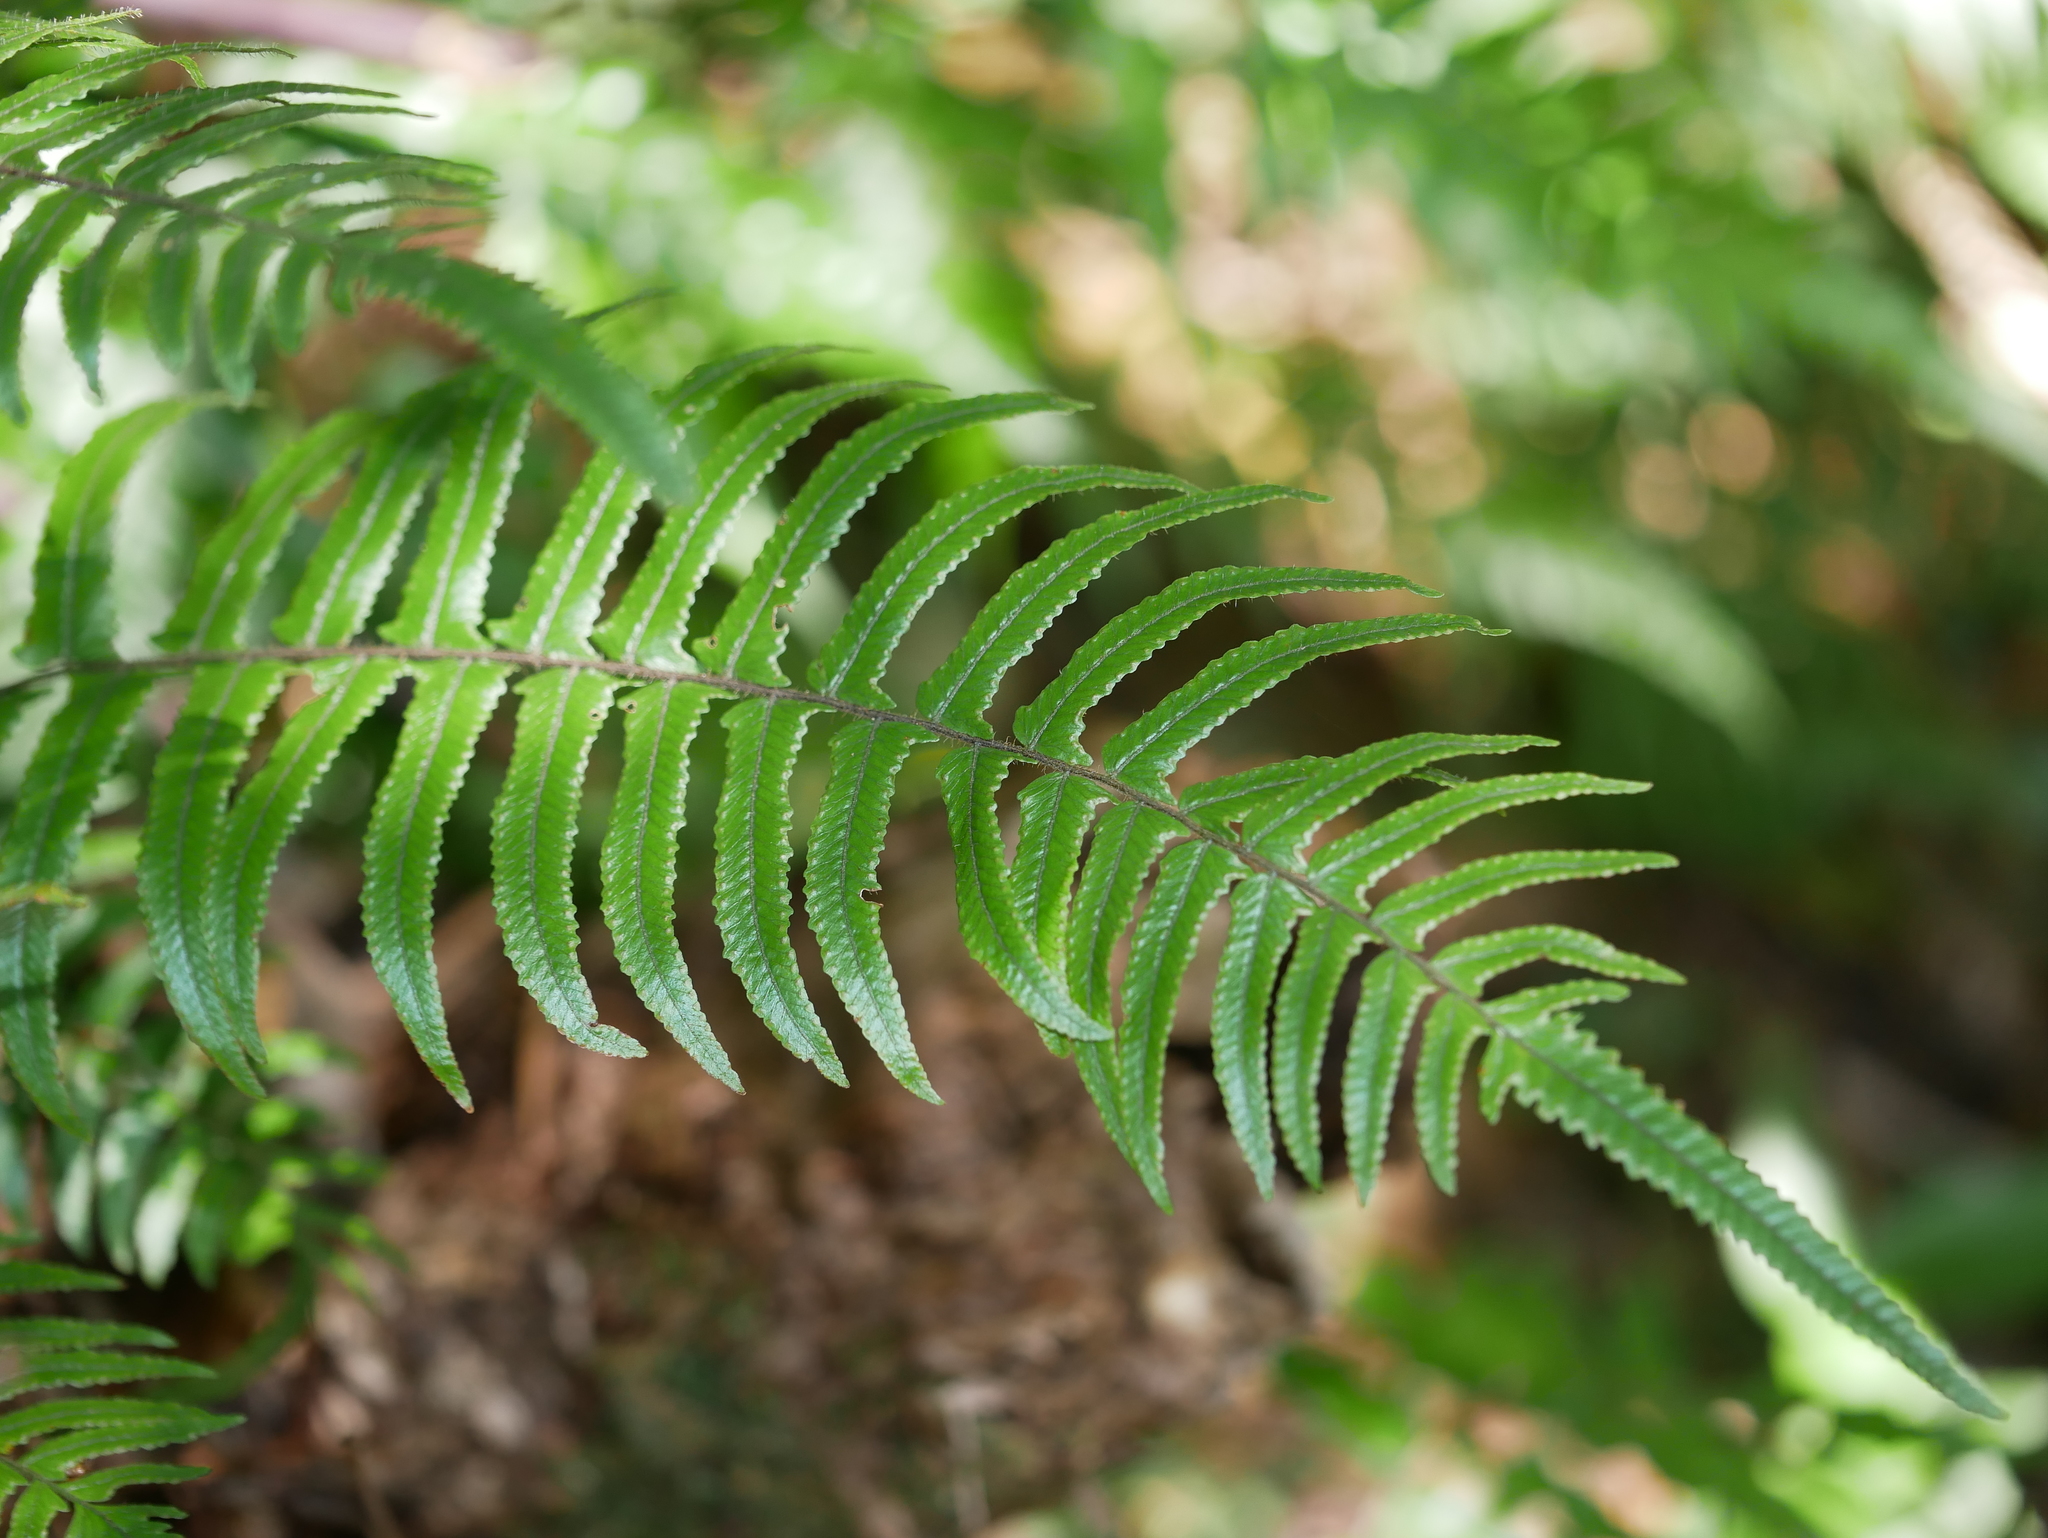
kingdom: Plantae
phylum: Tracheophyta
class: Polypodiopsida
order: Polypodiales
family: Dennstaedtiaceae
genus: Microlepia
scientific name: Microlepia hookeriana
